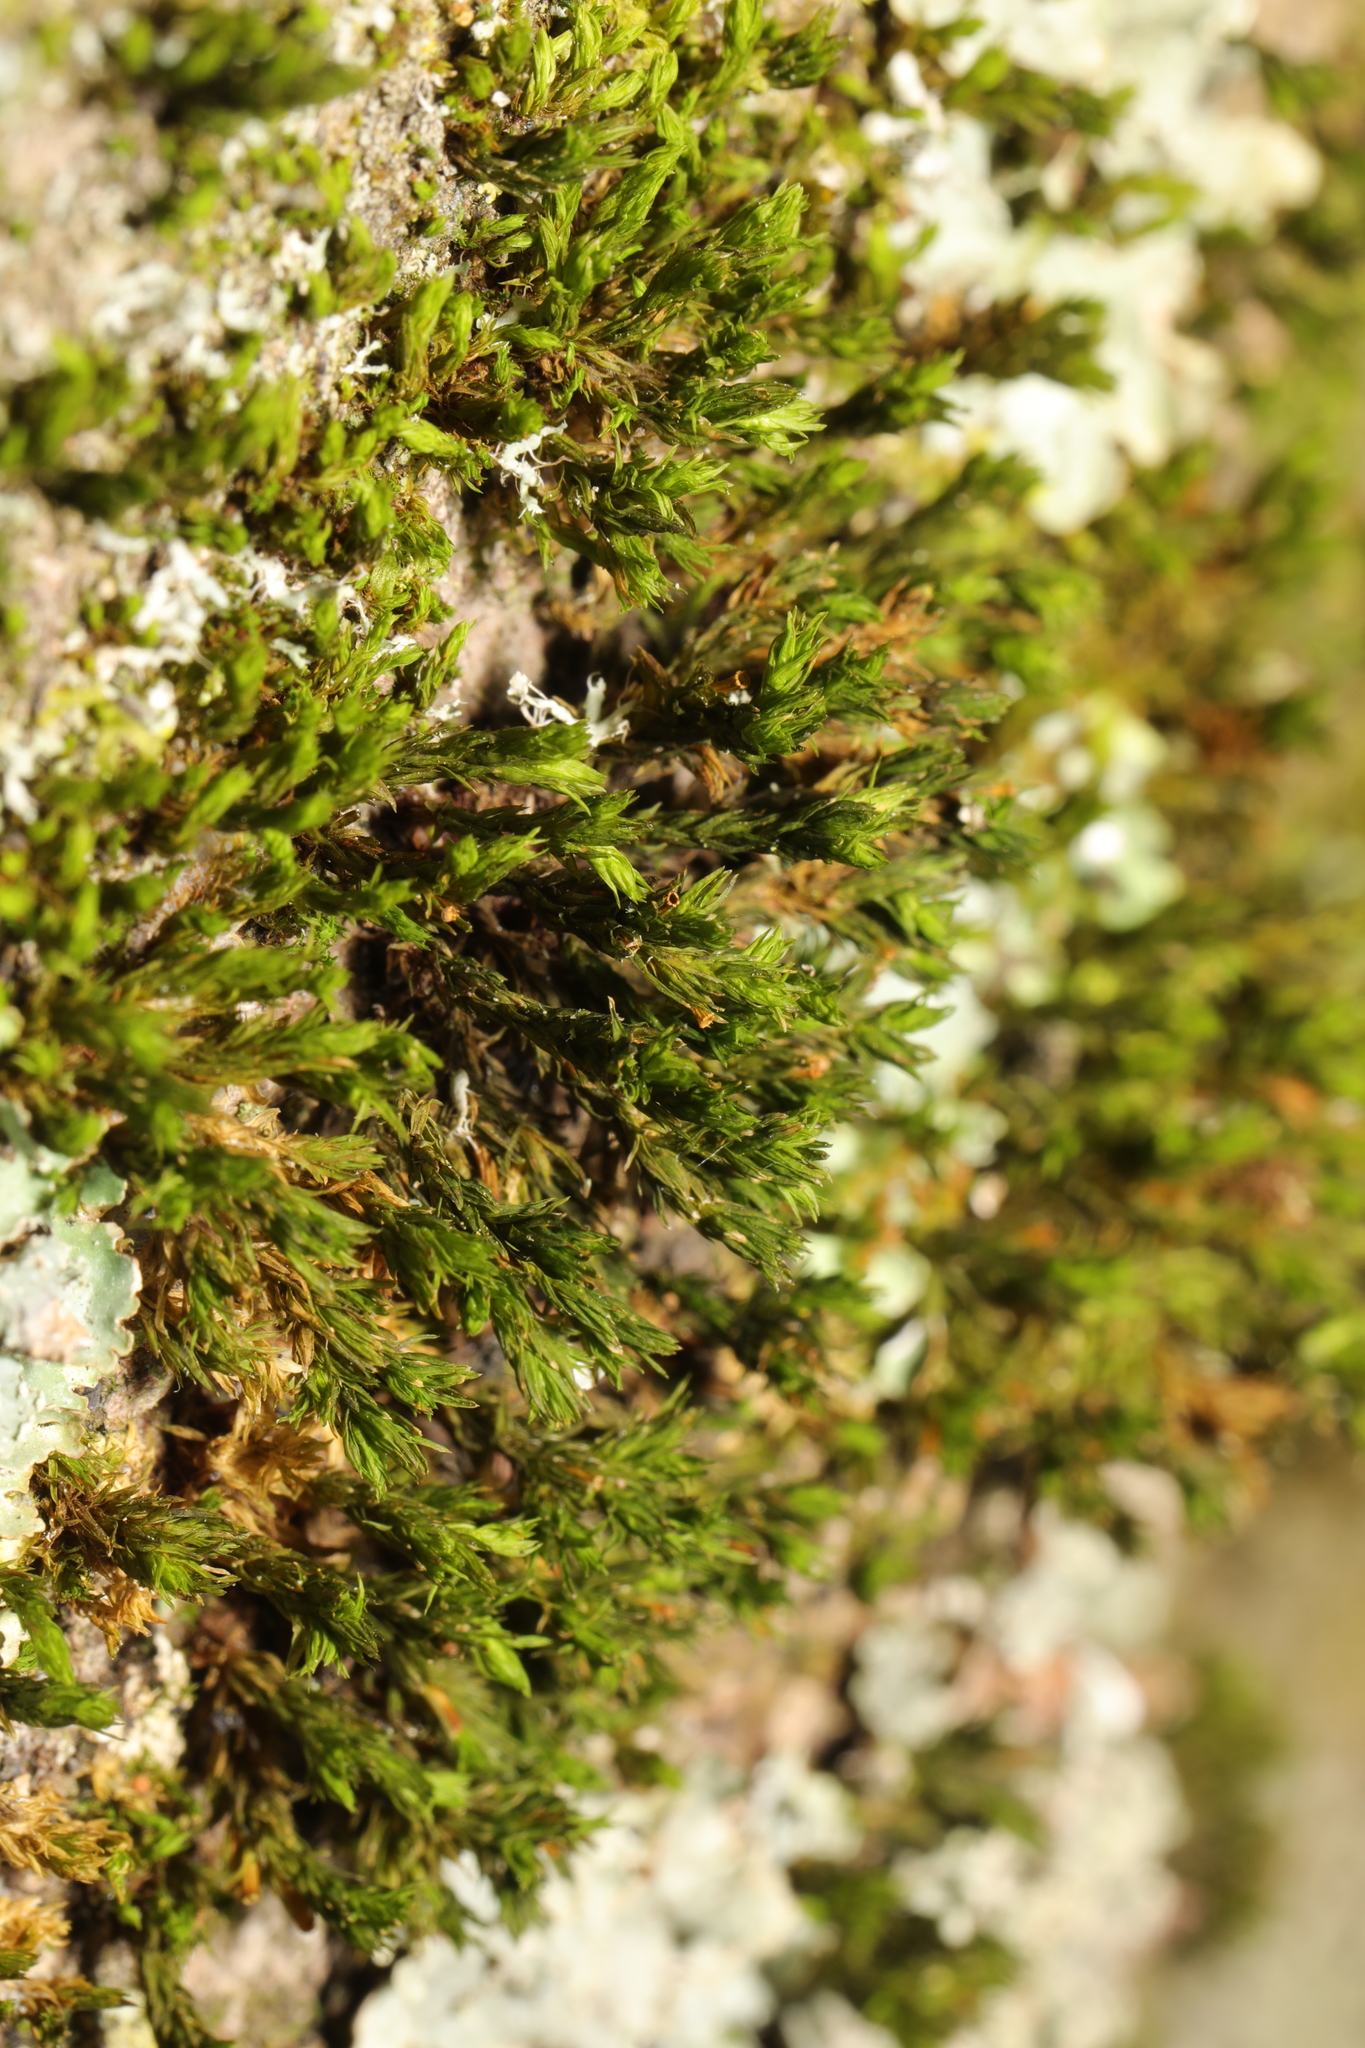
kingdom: Plantae
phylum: Bryophyta
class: Bryopsida
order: Orthotrichales
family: Orthotrichaceae
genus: Lewinskya
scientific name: Lewinskya affinis
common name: Wood bristle-moss
